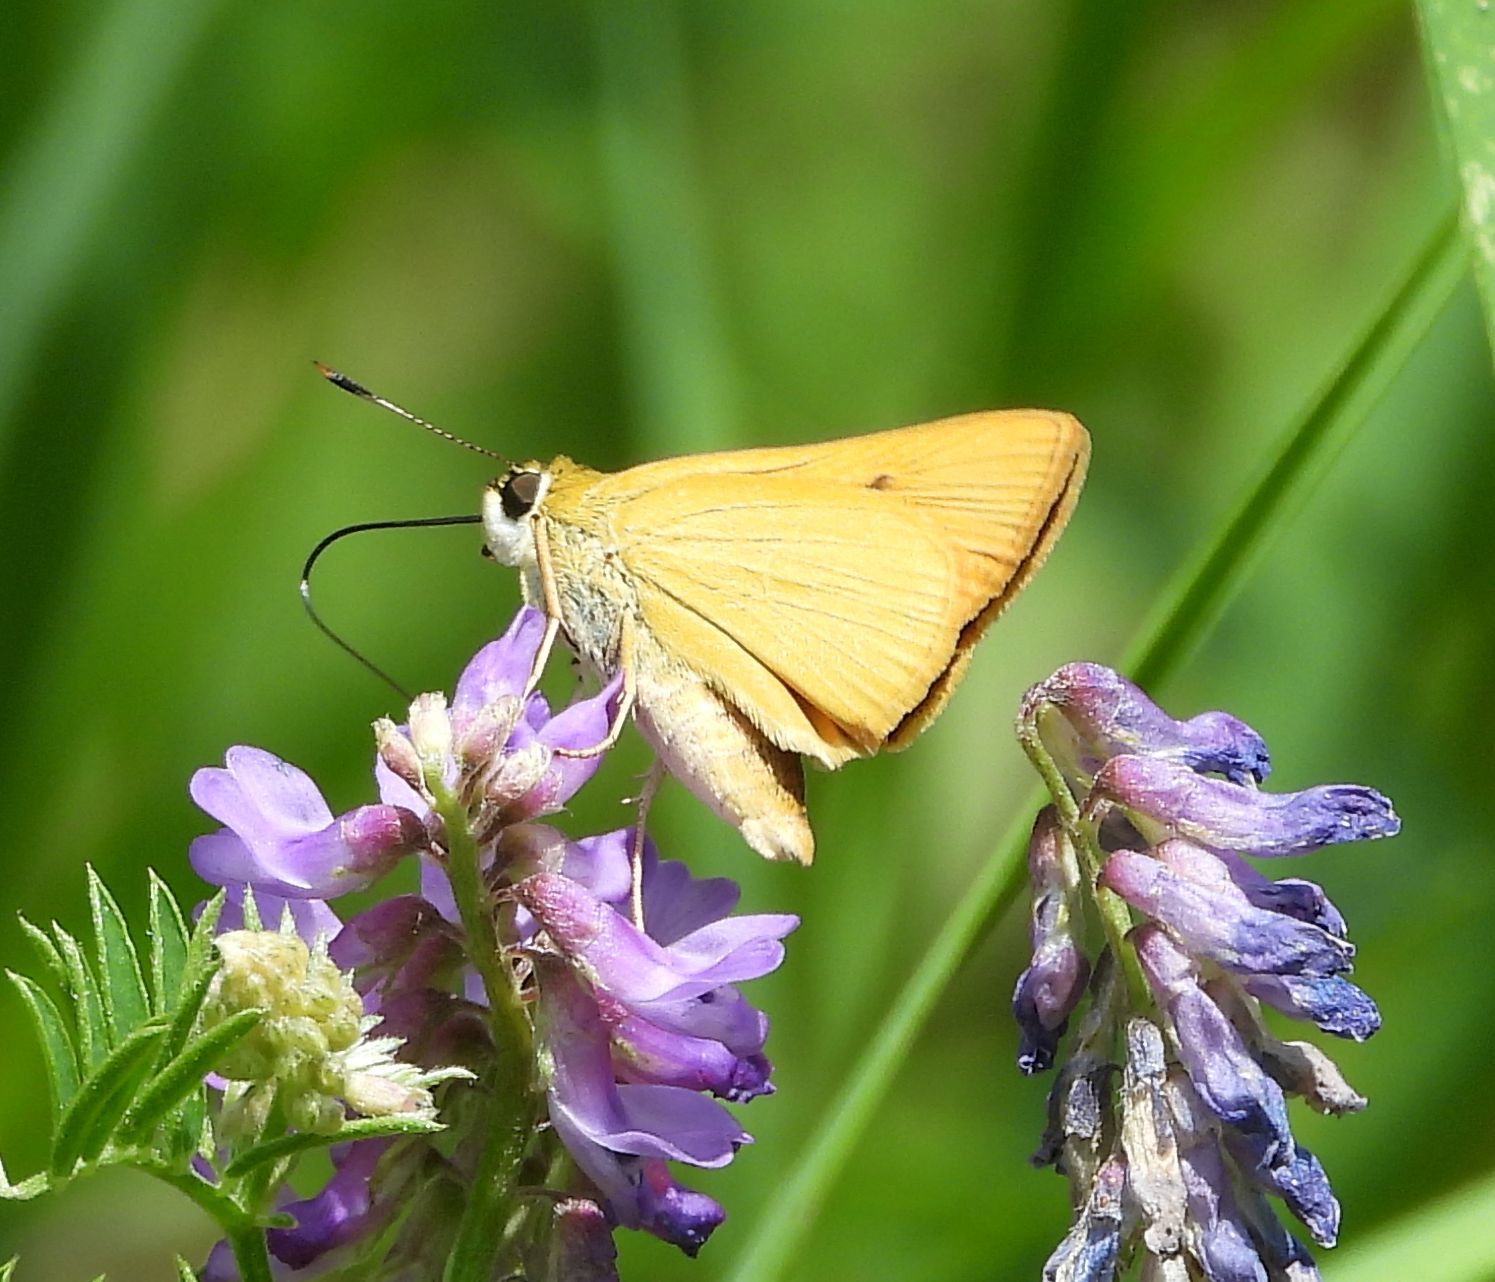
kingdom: Animalia
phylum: Arthropoda
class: Insecta
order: Lepidoptera
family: Hesperiidae
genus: Atrytone
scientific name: Atrytone delaware
